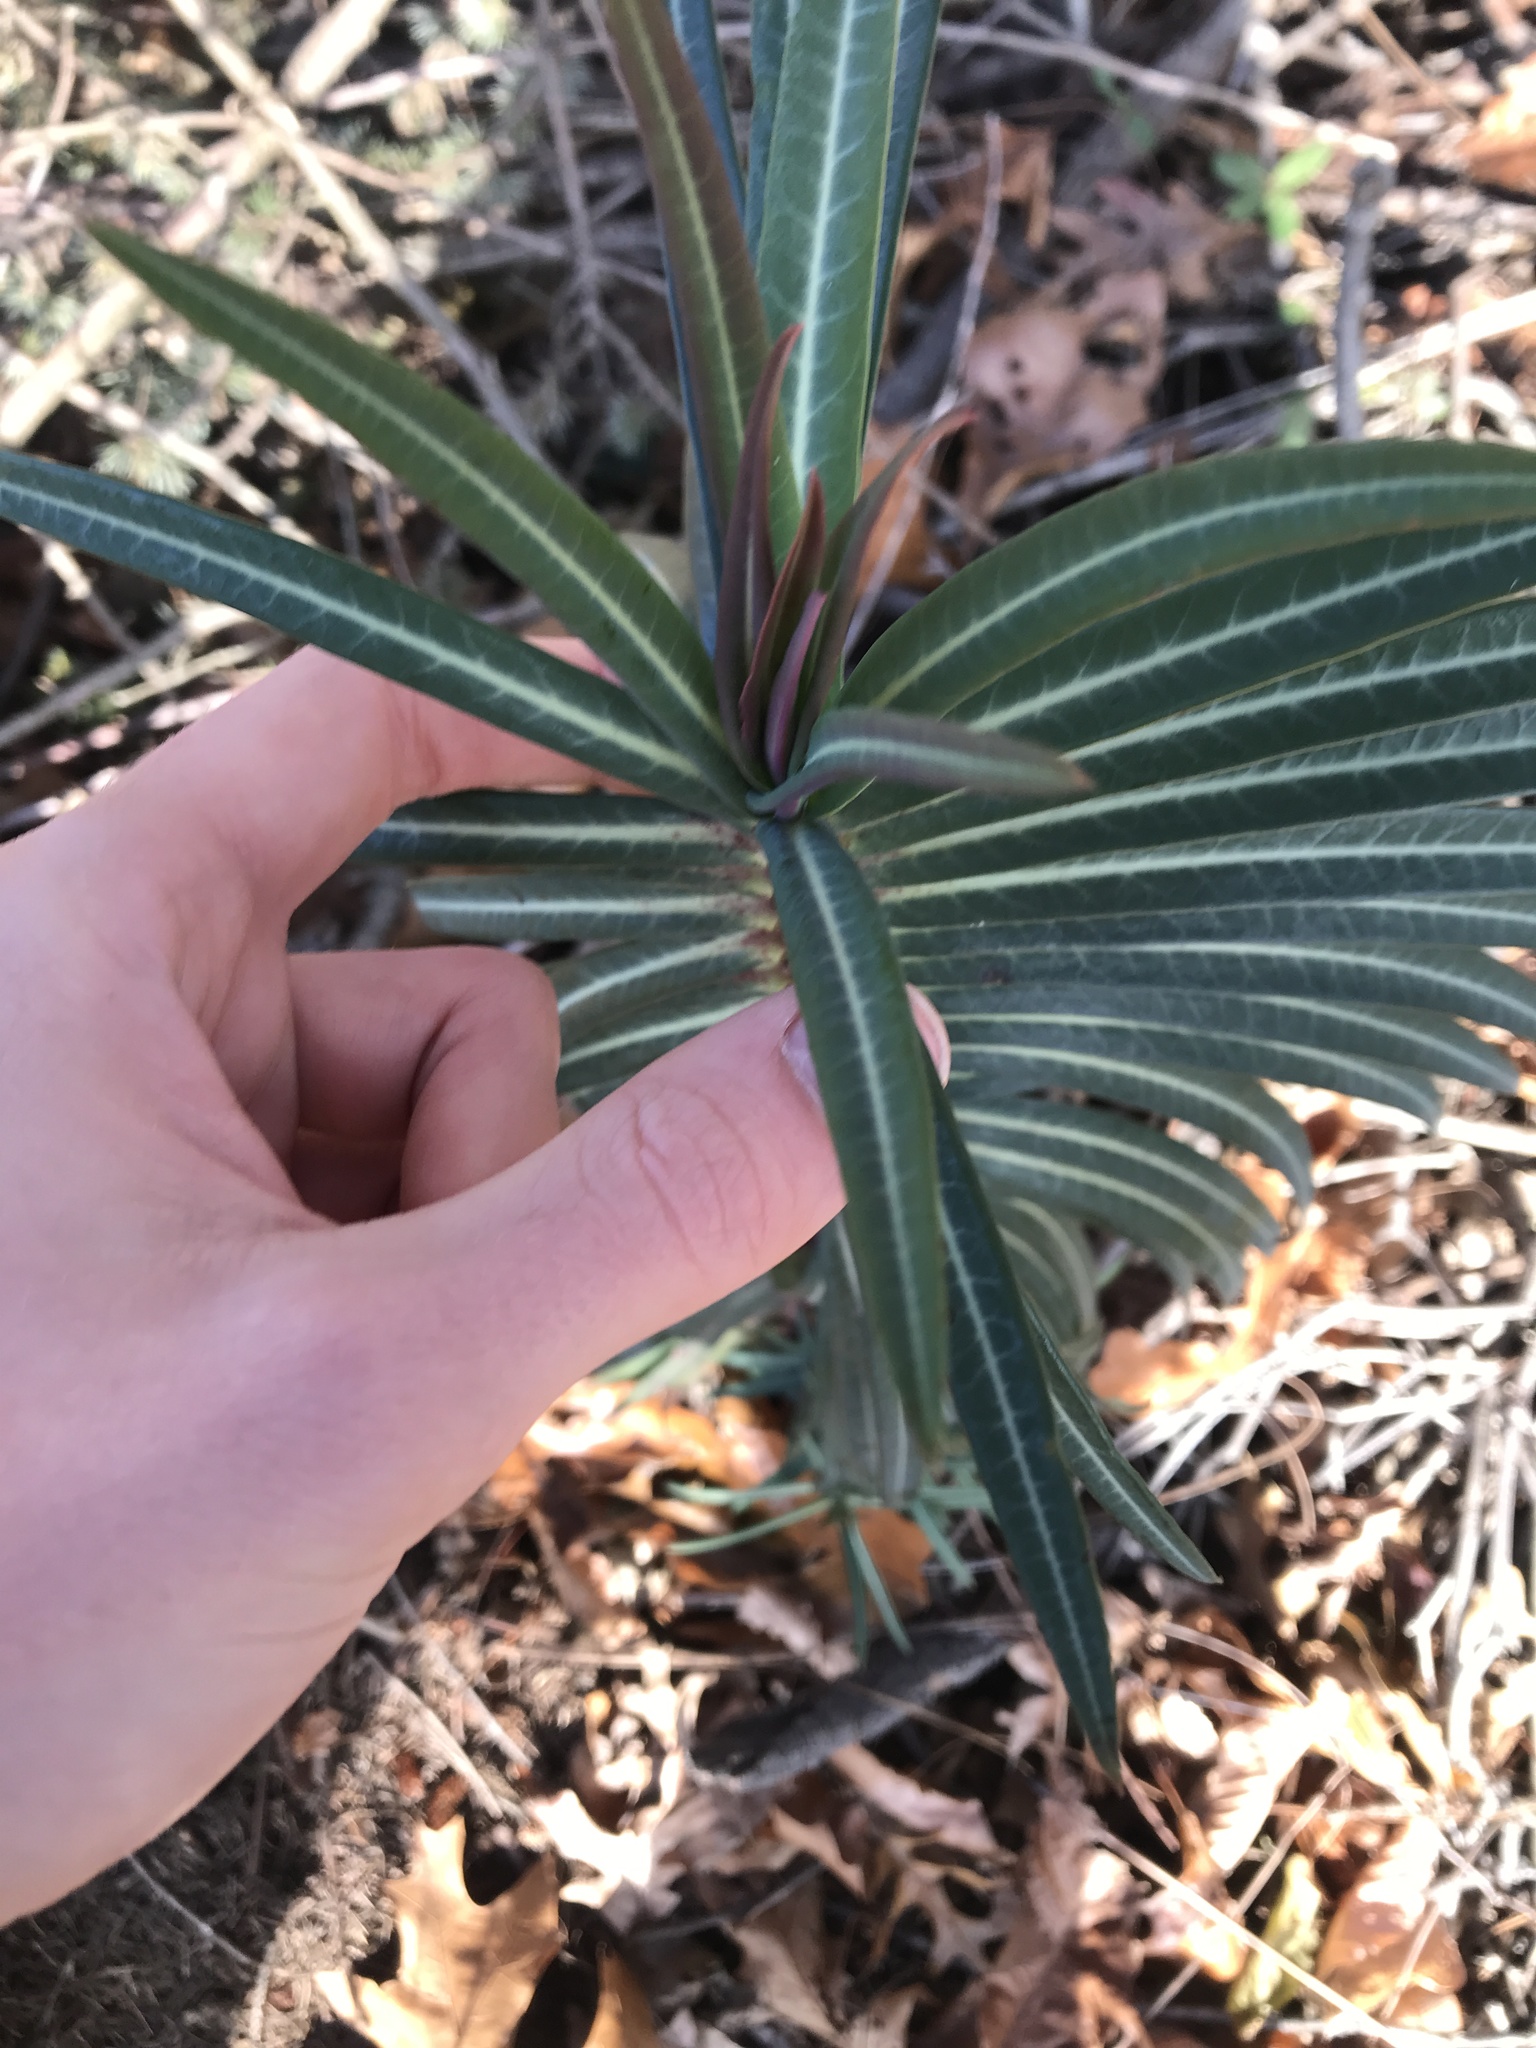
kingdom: Plantae
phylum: Tracheophyta
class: Magnoliopsida
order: Malpighiales
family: Euphorbiaceae
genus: Euphorbia
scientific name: Euphorbia lathyris
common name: Caper spurge
